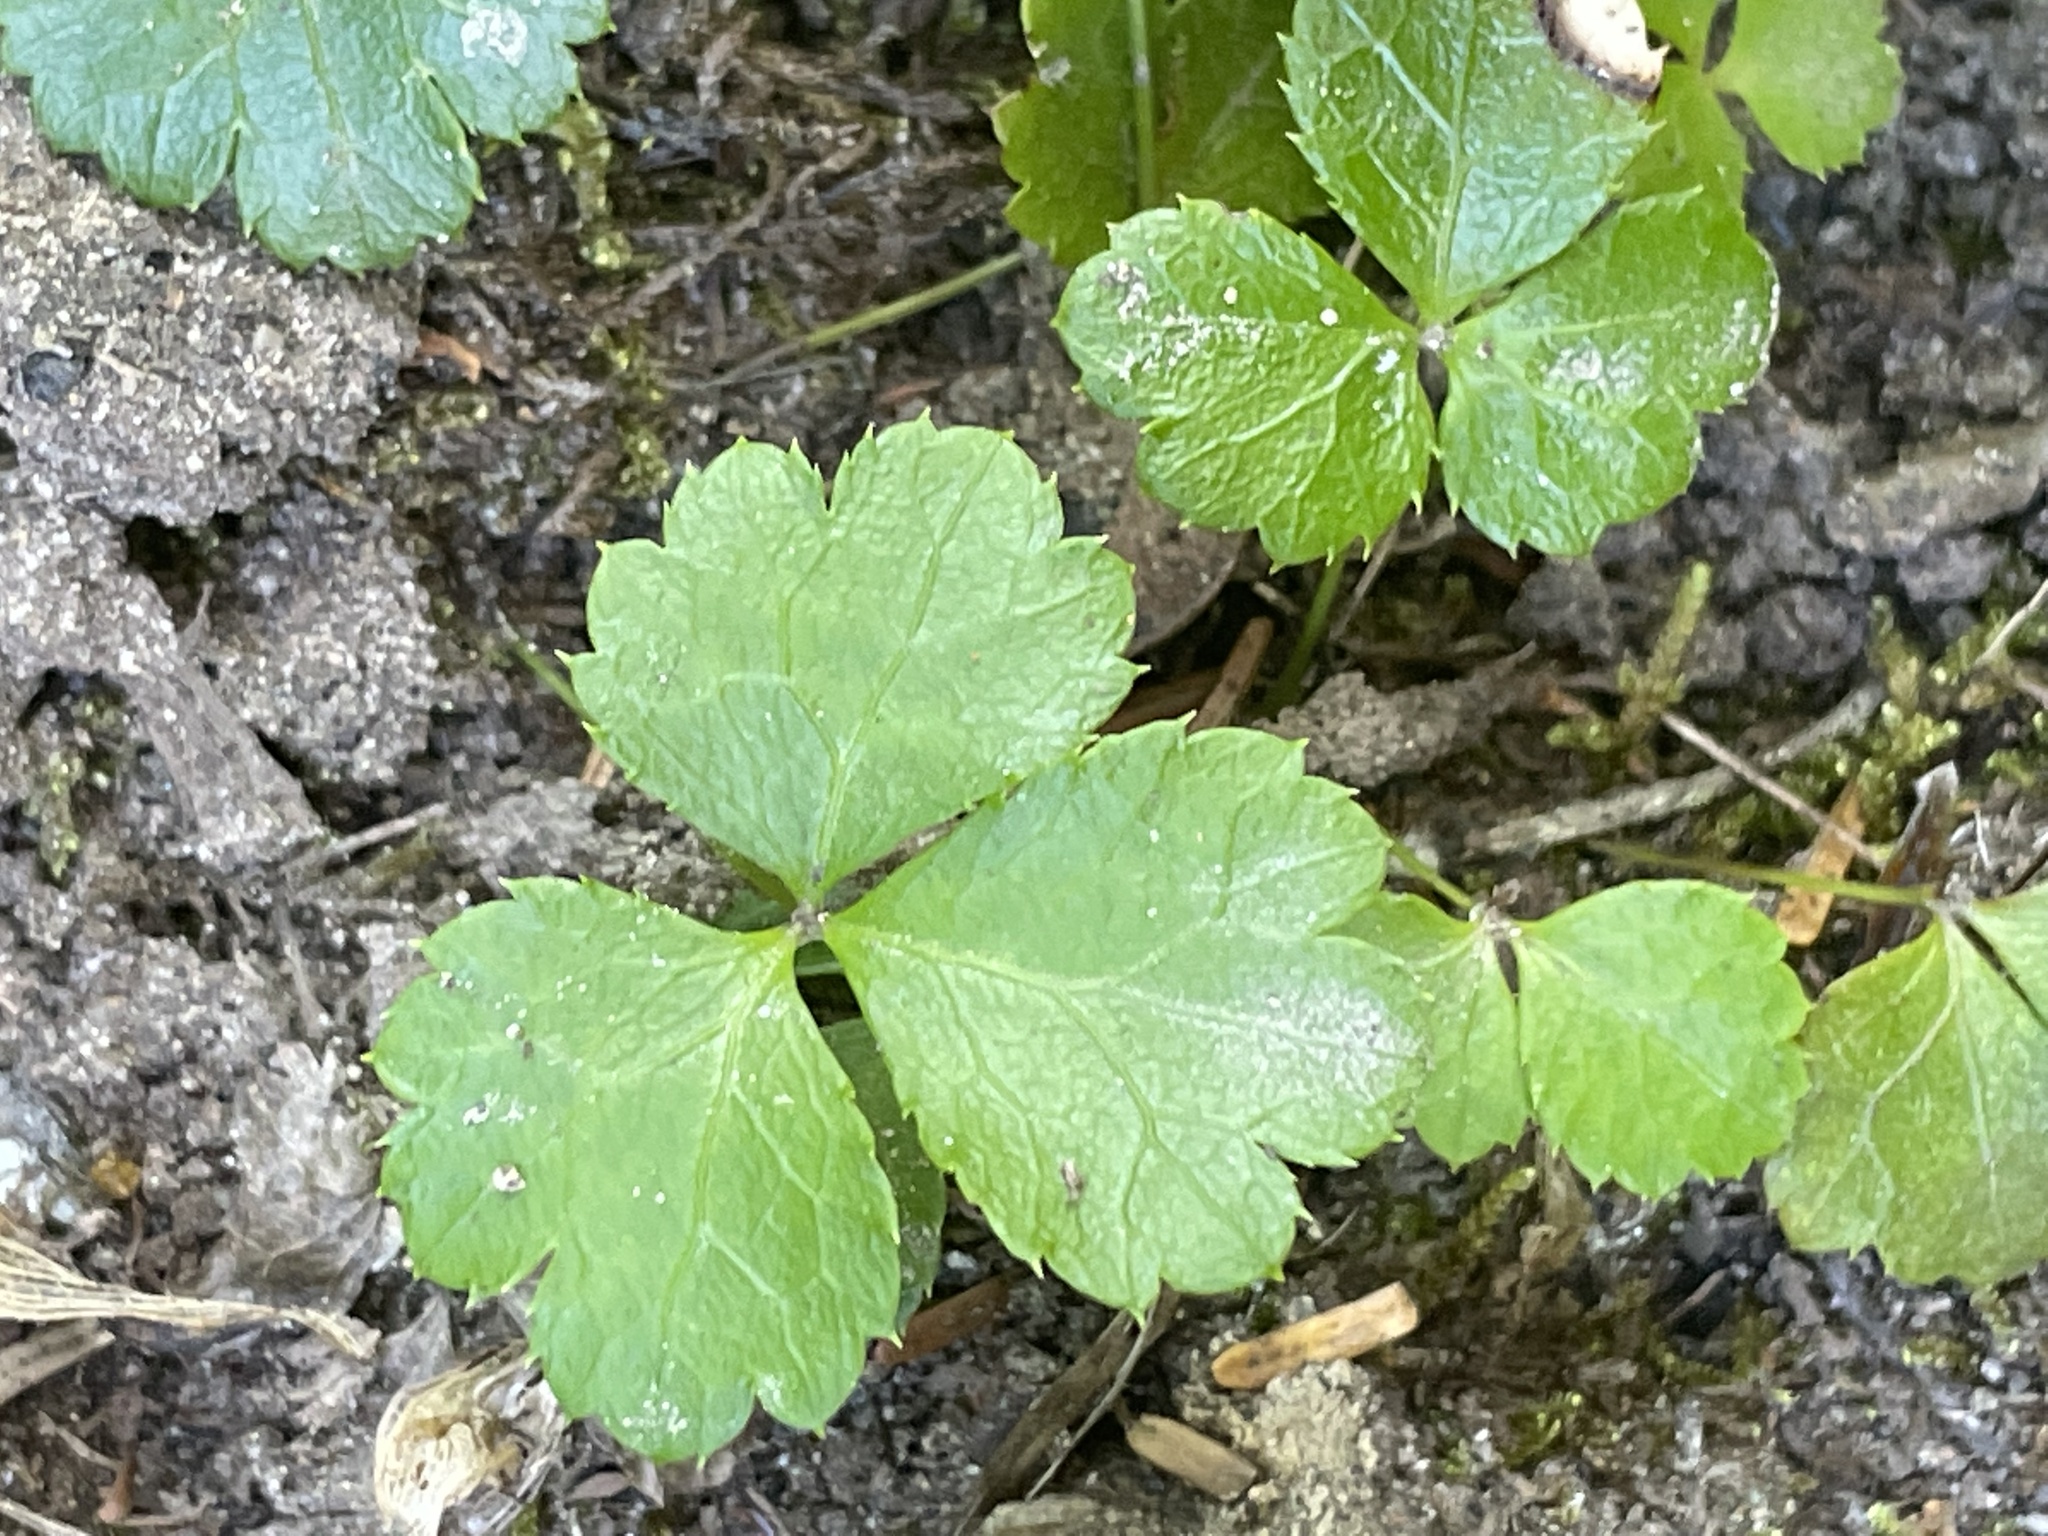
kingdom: Plantae
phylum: Tracheophyta
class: Magnoliopsida
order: Ranunculales
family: Ranunculaceae
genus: Coptis
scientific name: Coptis trifolia
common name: Canker-root
